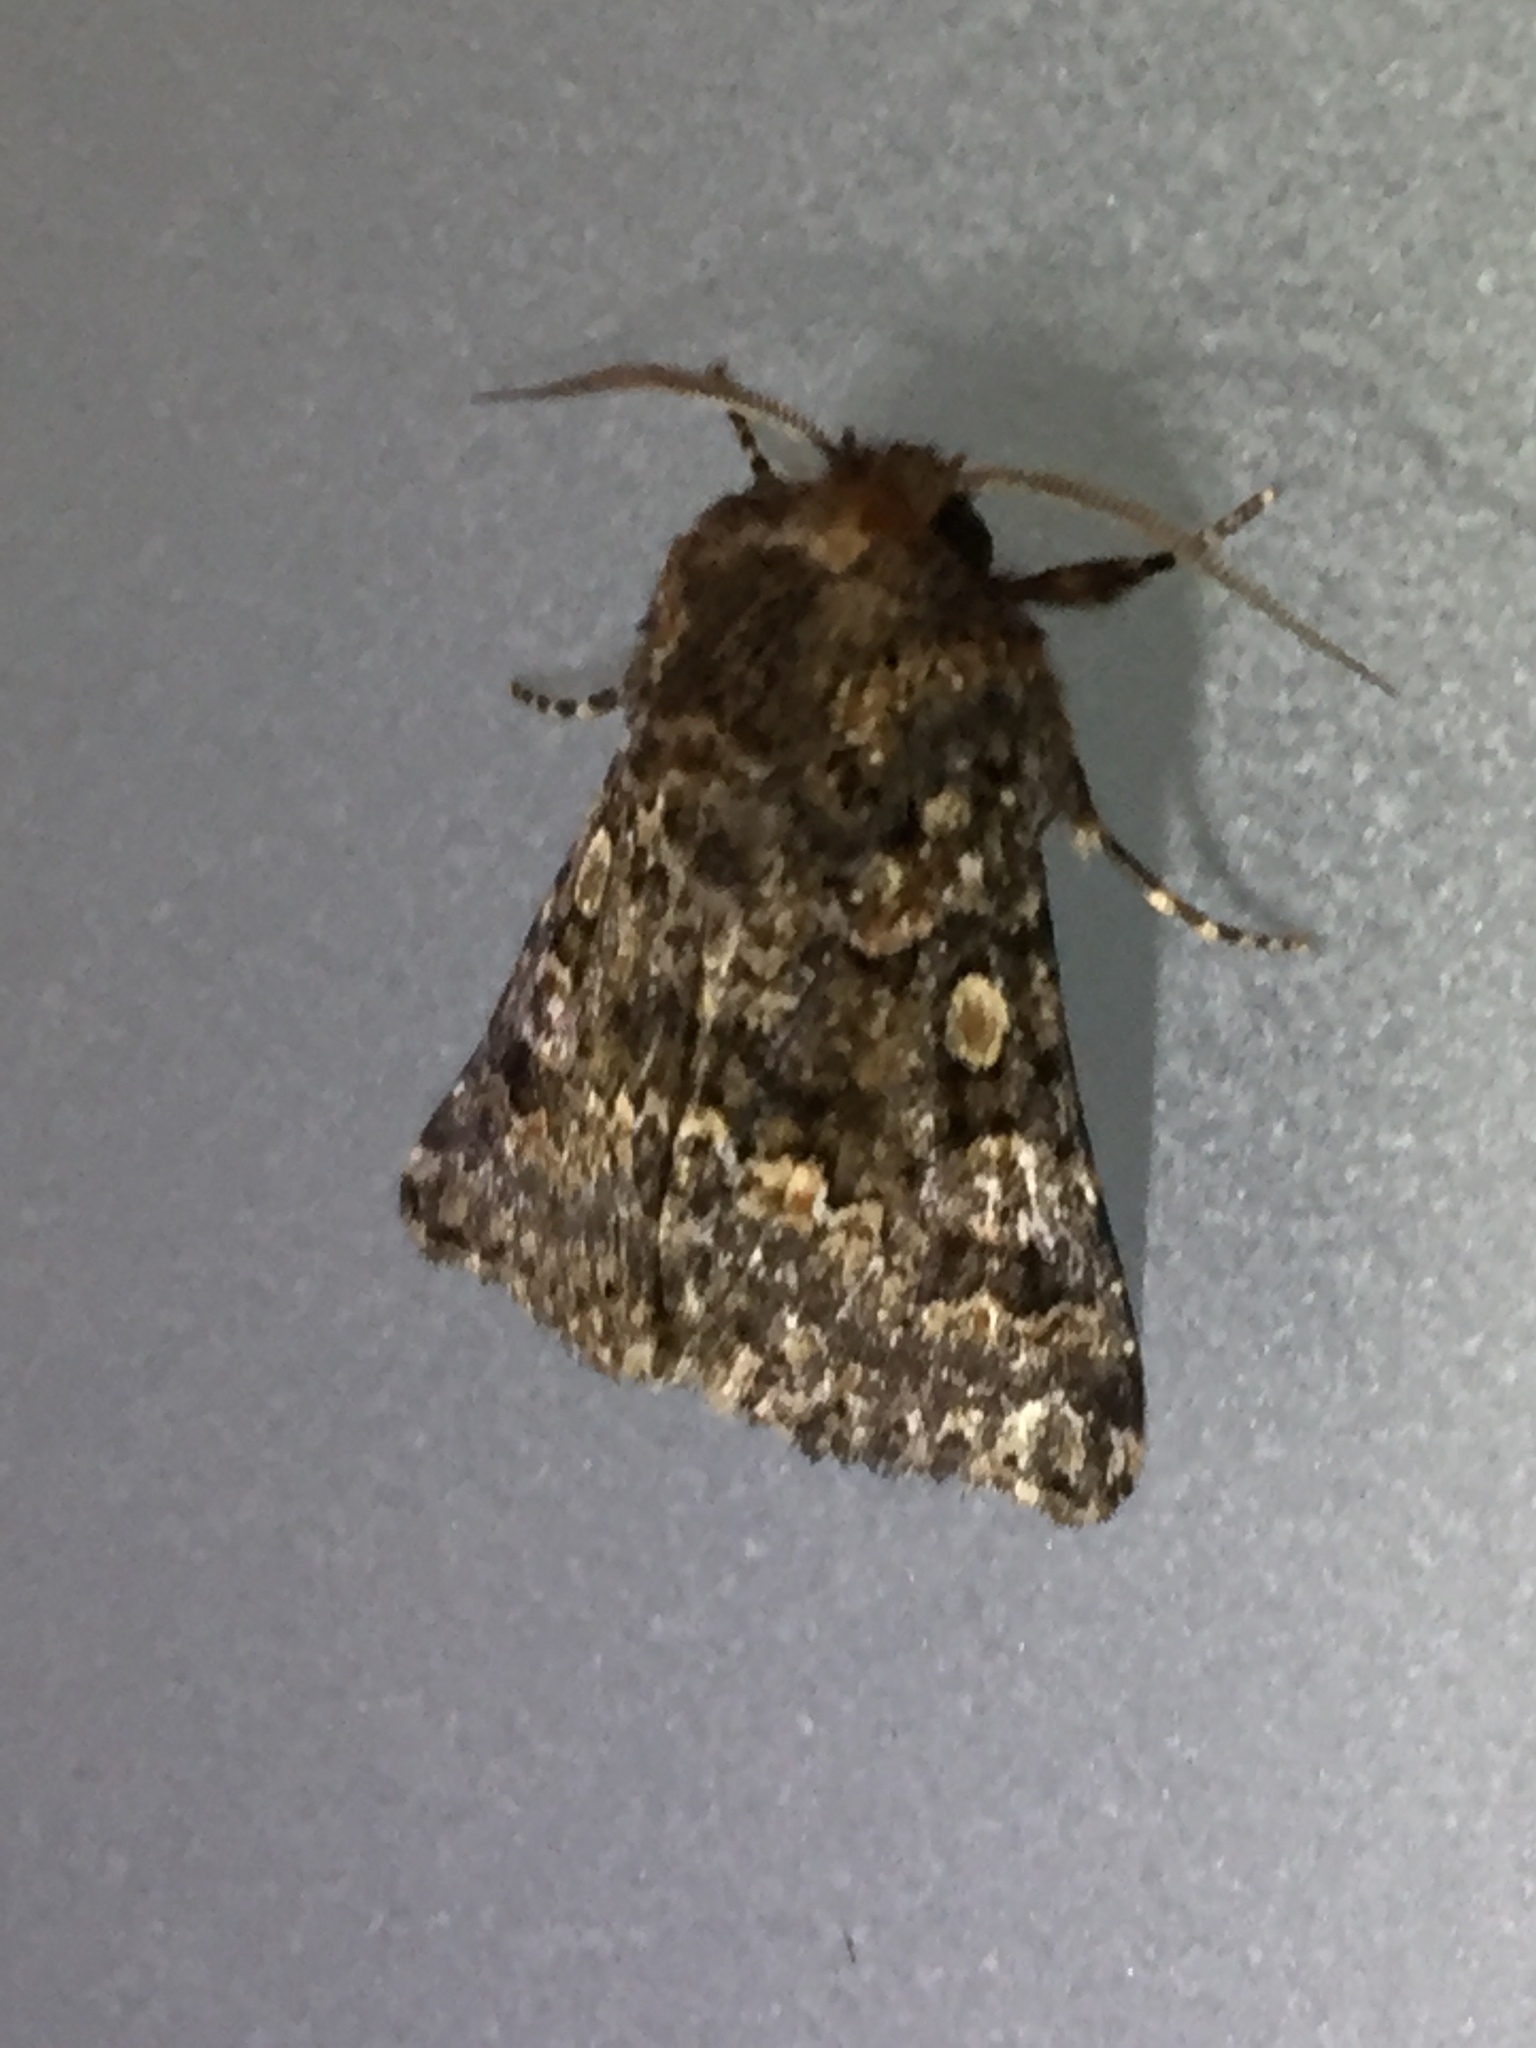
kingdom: Animalia
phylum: Arthropoda
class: Insecta
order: Lepidoptera
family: Noctuidae
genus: Klugeana
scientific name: Klugeana philoxalis
